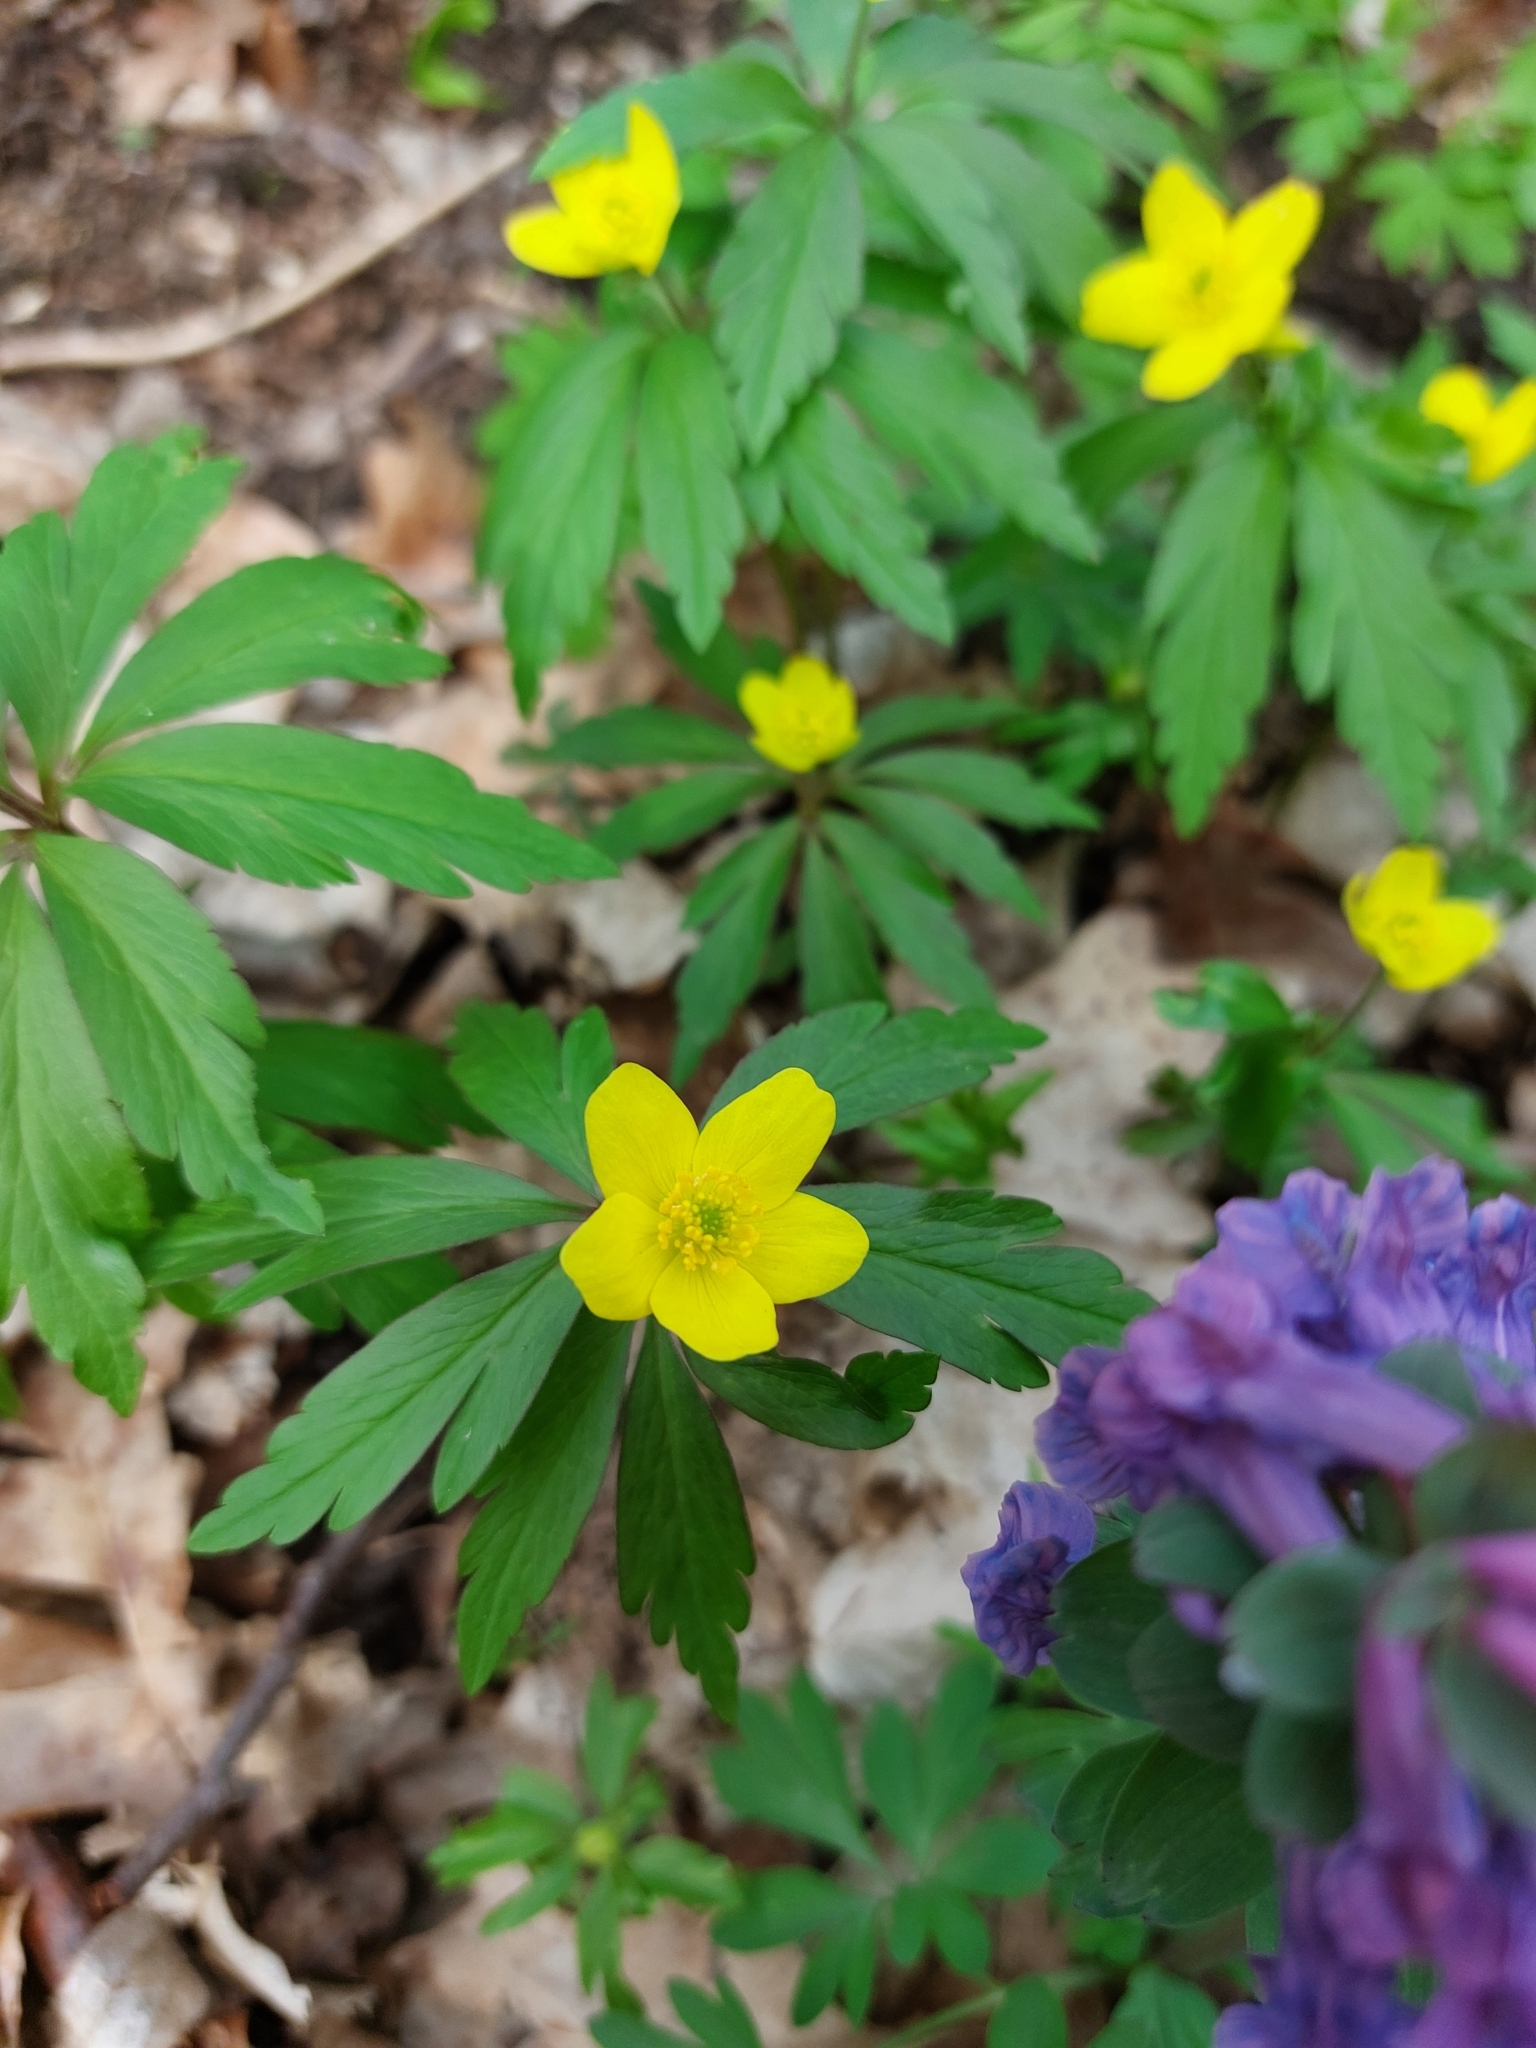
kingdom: Plantae
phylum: Tracheophyta
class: Magnoliopsida
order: Ranunculales
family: Ranunculaceae
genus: Anemone
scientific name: Anemone ranunculoides
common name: Yellow anemone
